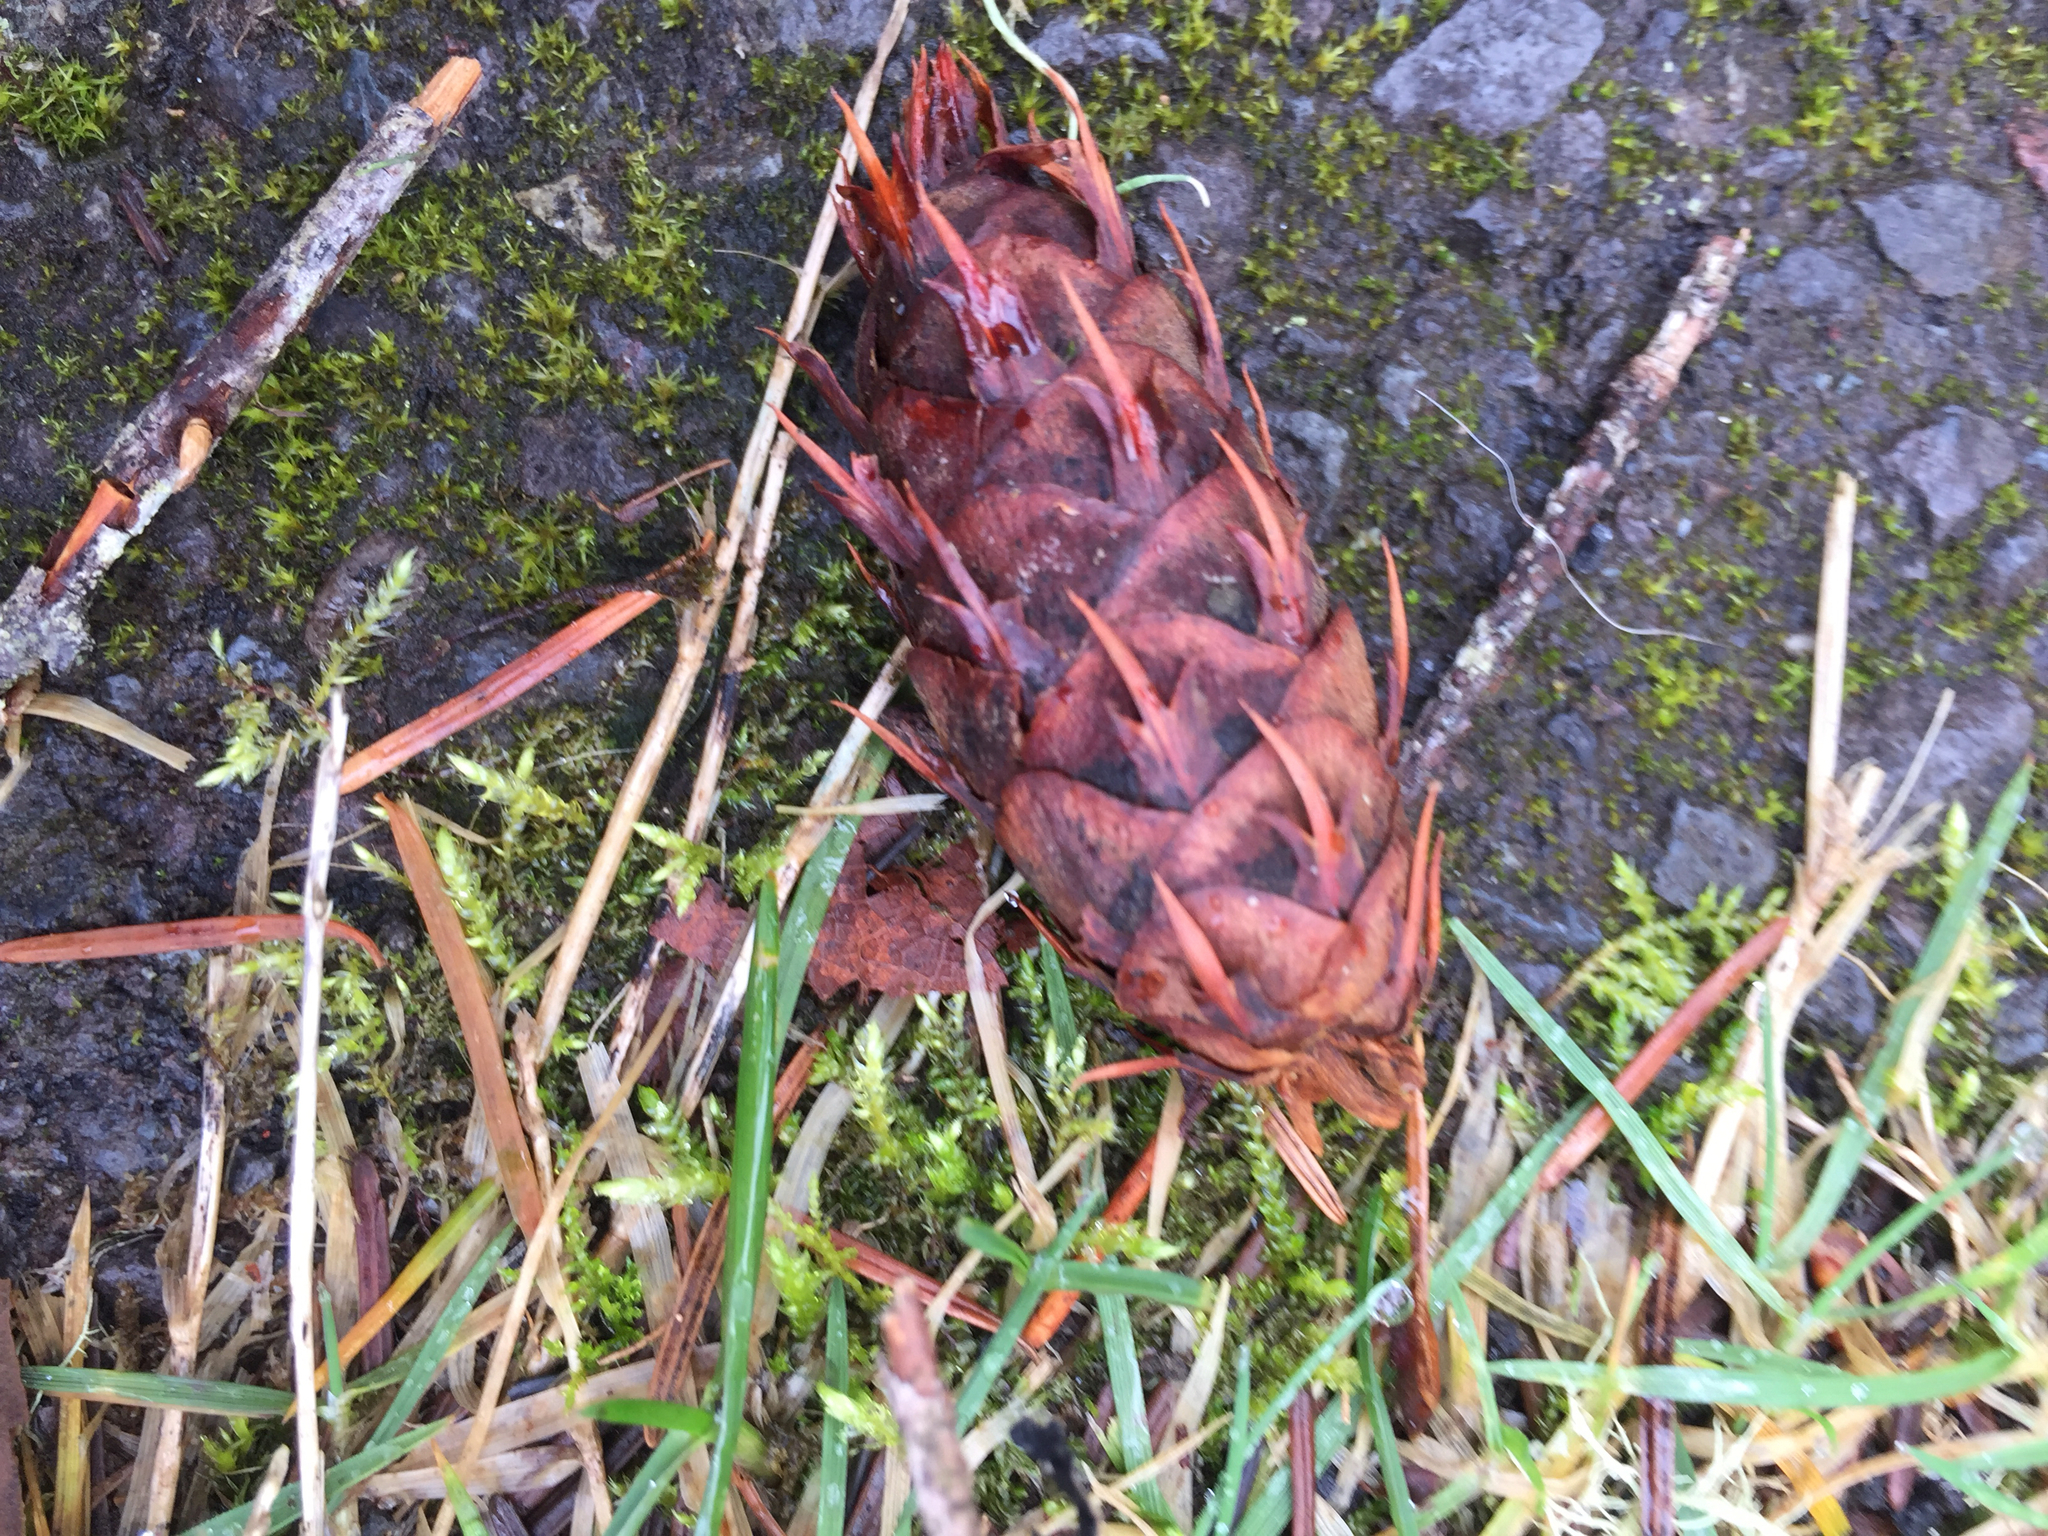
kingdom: Plantae
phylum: Tracheophyta
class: Pinopsida
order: Pinales
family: Pinaceae
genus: Pseudotsuga
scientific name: Pseudotsuga menziesii
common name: Douglas fir
